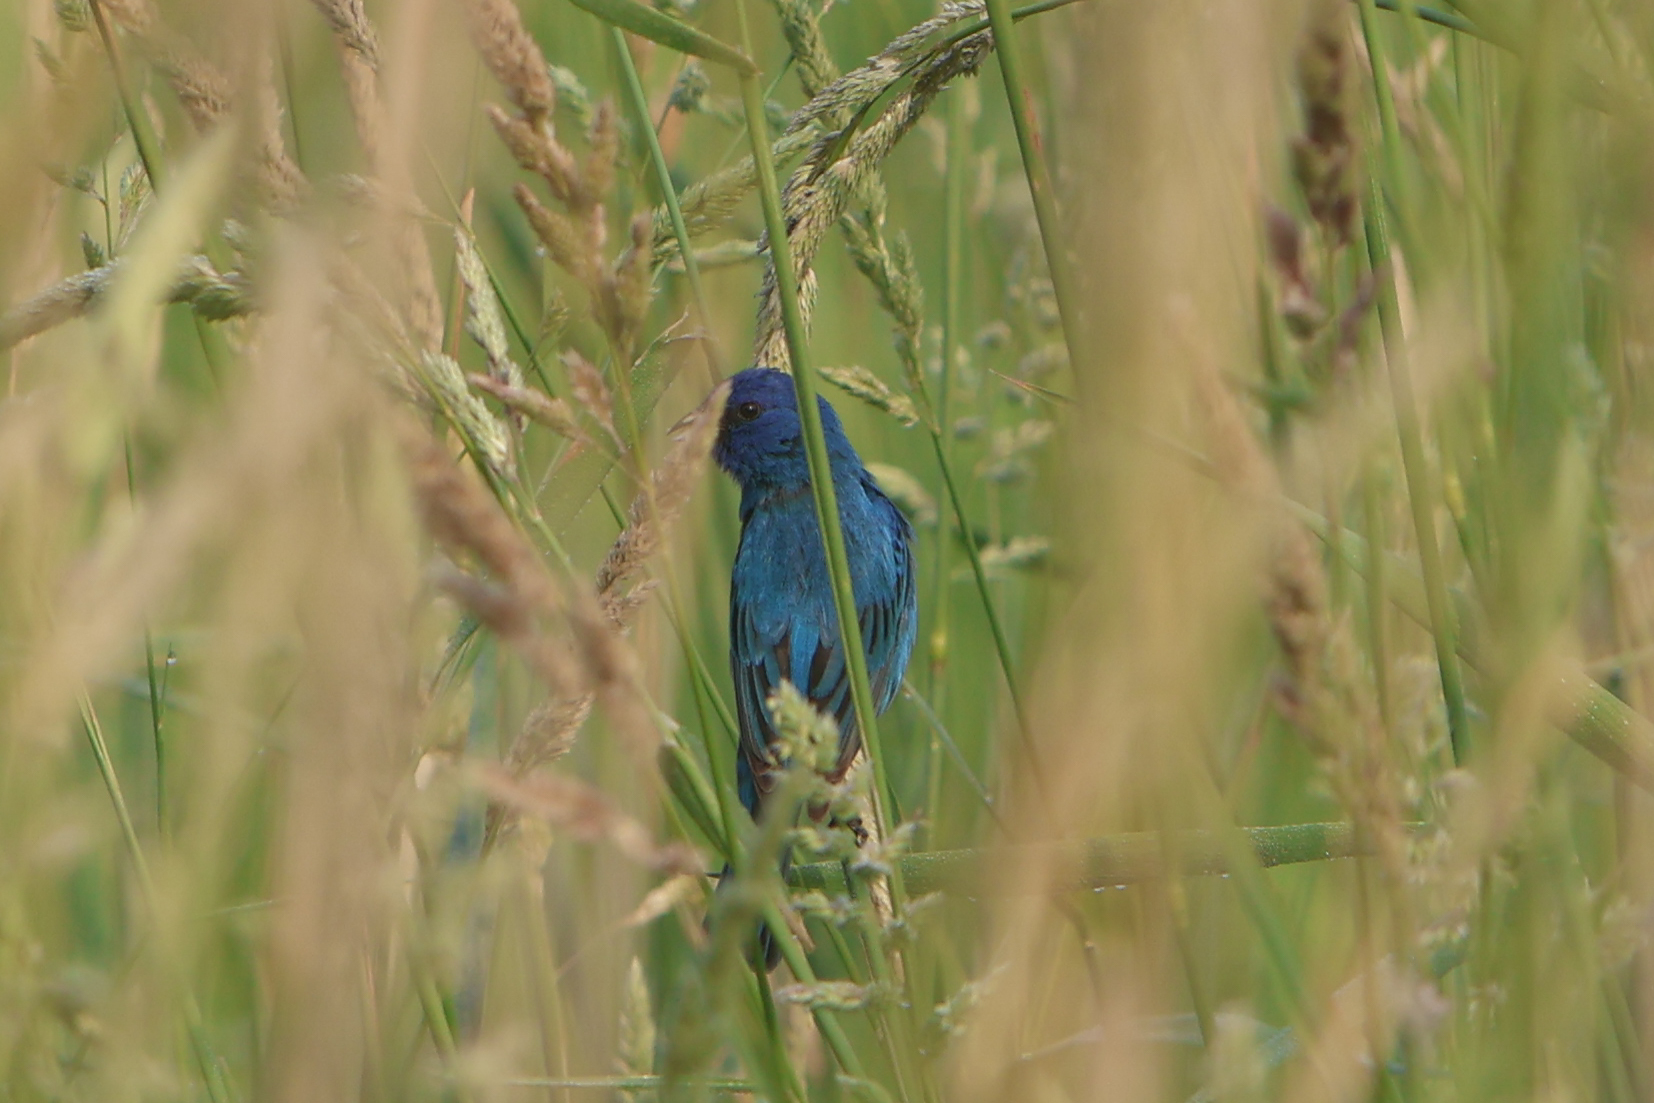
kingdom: Animalia
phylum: Chordata
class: Aves
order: Passeriformes
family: Cardinalidae
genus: Passerina
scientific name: Passerina cyanea
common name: Indigo bunting
